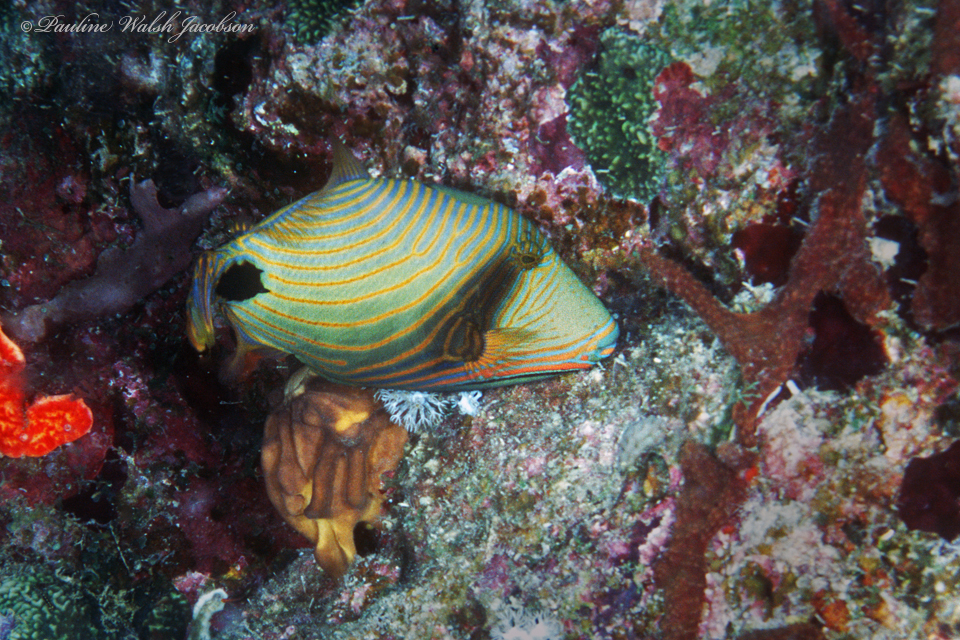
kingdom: Animalia
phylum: Chordata
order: Tetraodontiformes
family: Balistidae
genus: Balistapus
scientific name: Balistapus undulatus
